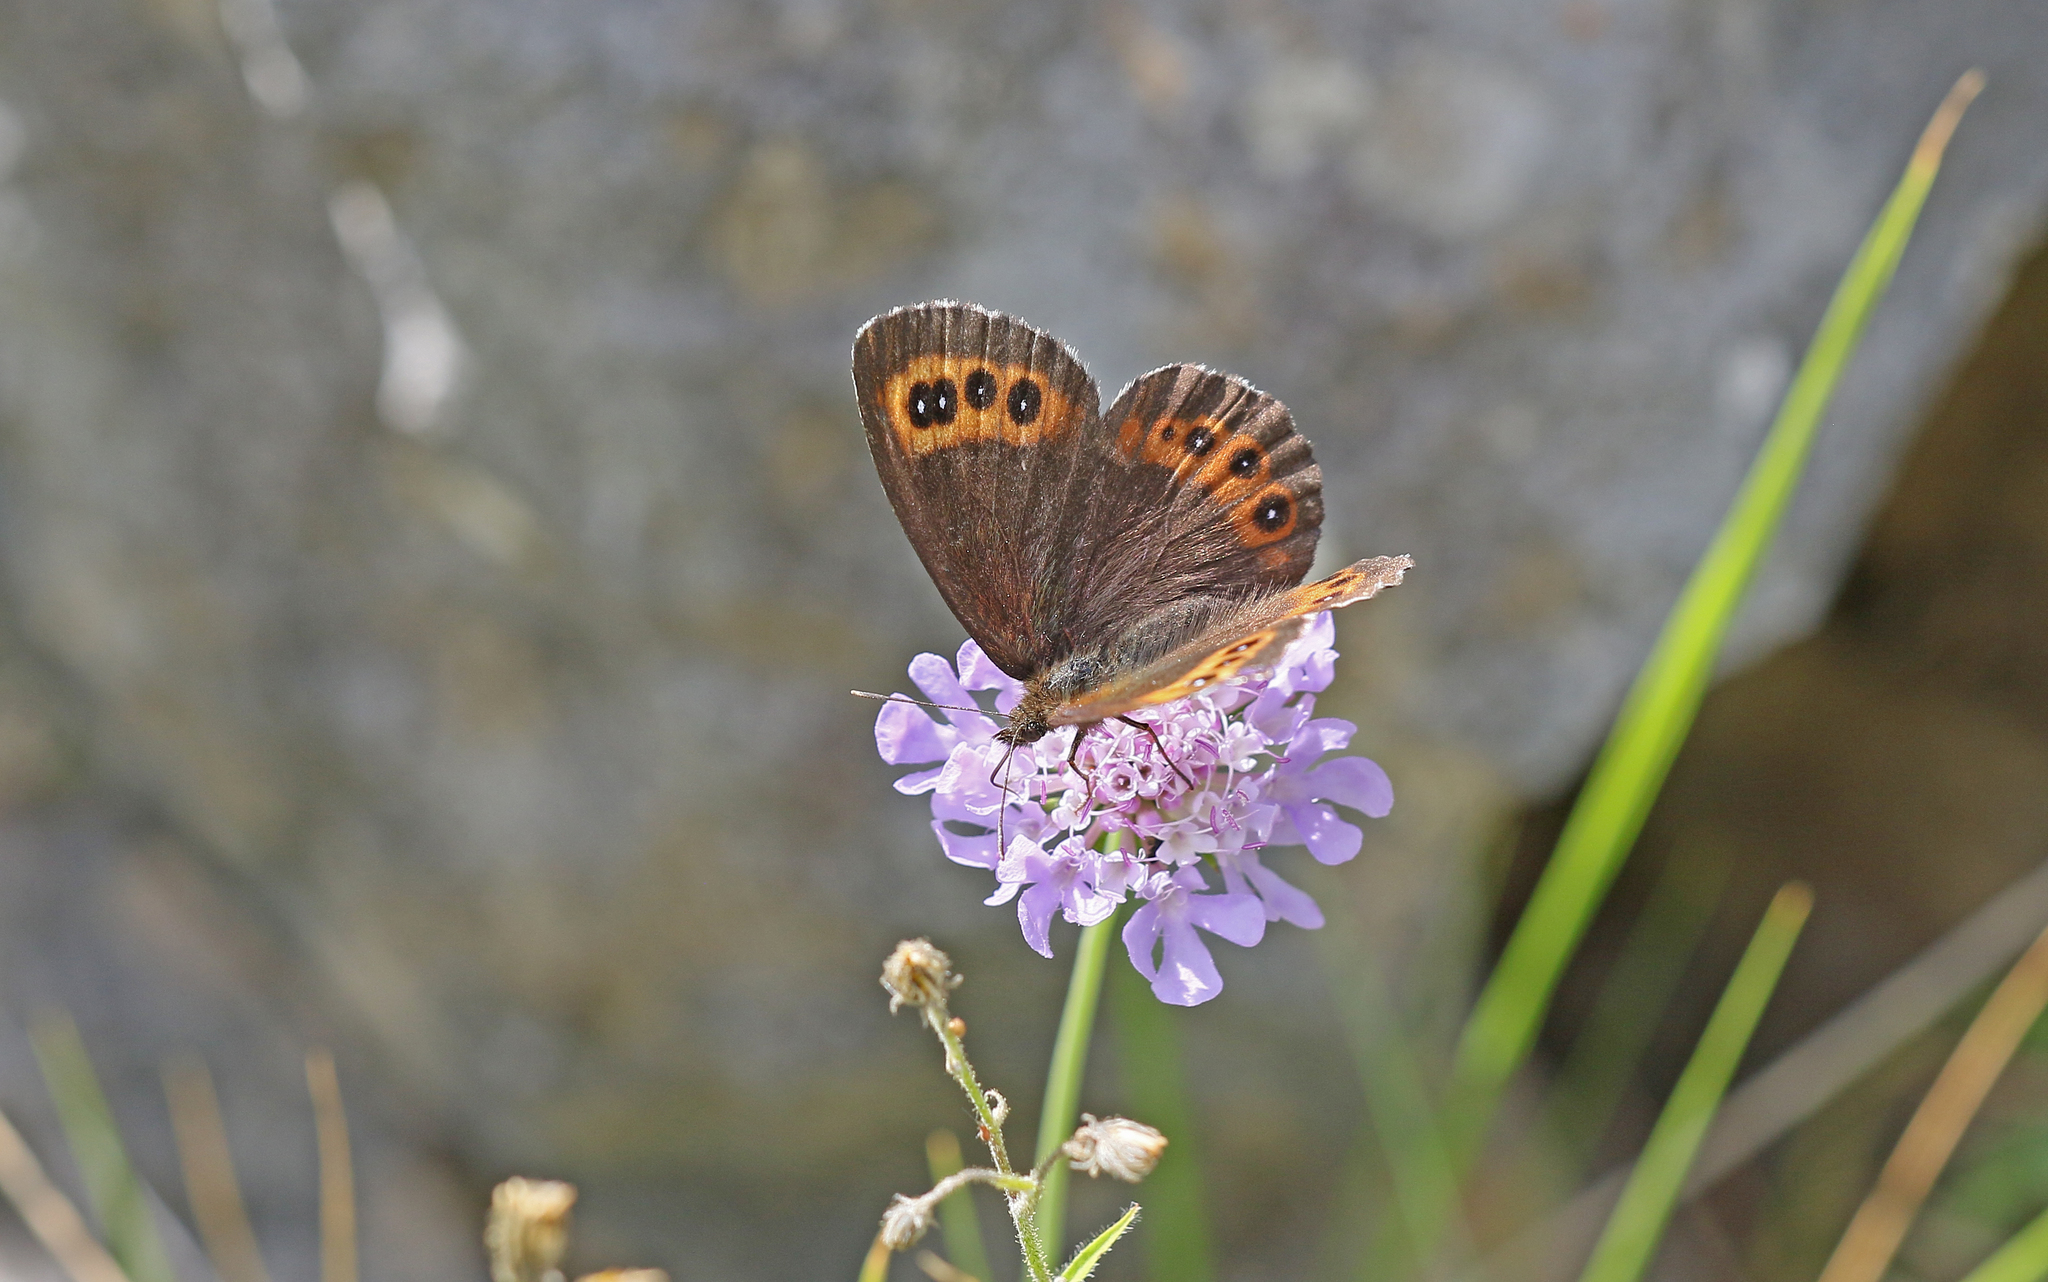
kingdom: Animalia
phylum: Arthropoda
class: Insecta
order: Lepidoptera
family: Nymphalidae
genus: Erebia
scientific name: Erebia ligea
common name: Arran brown
